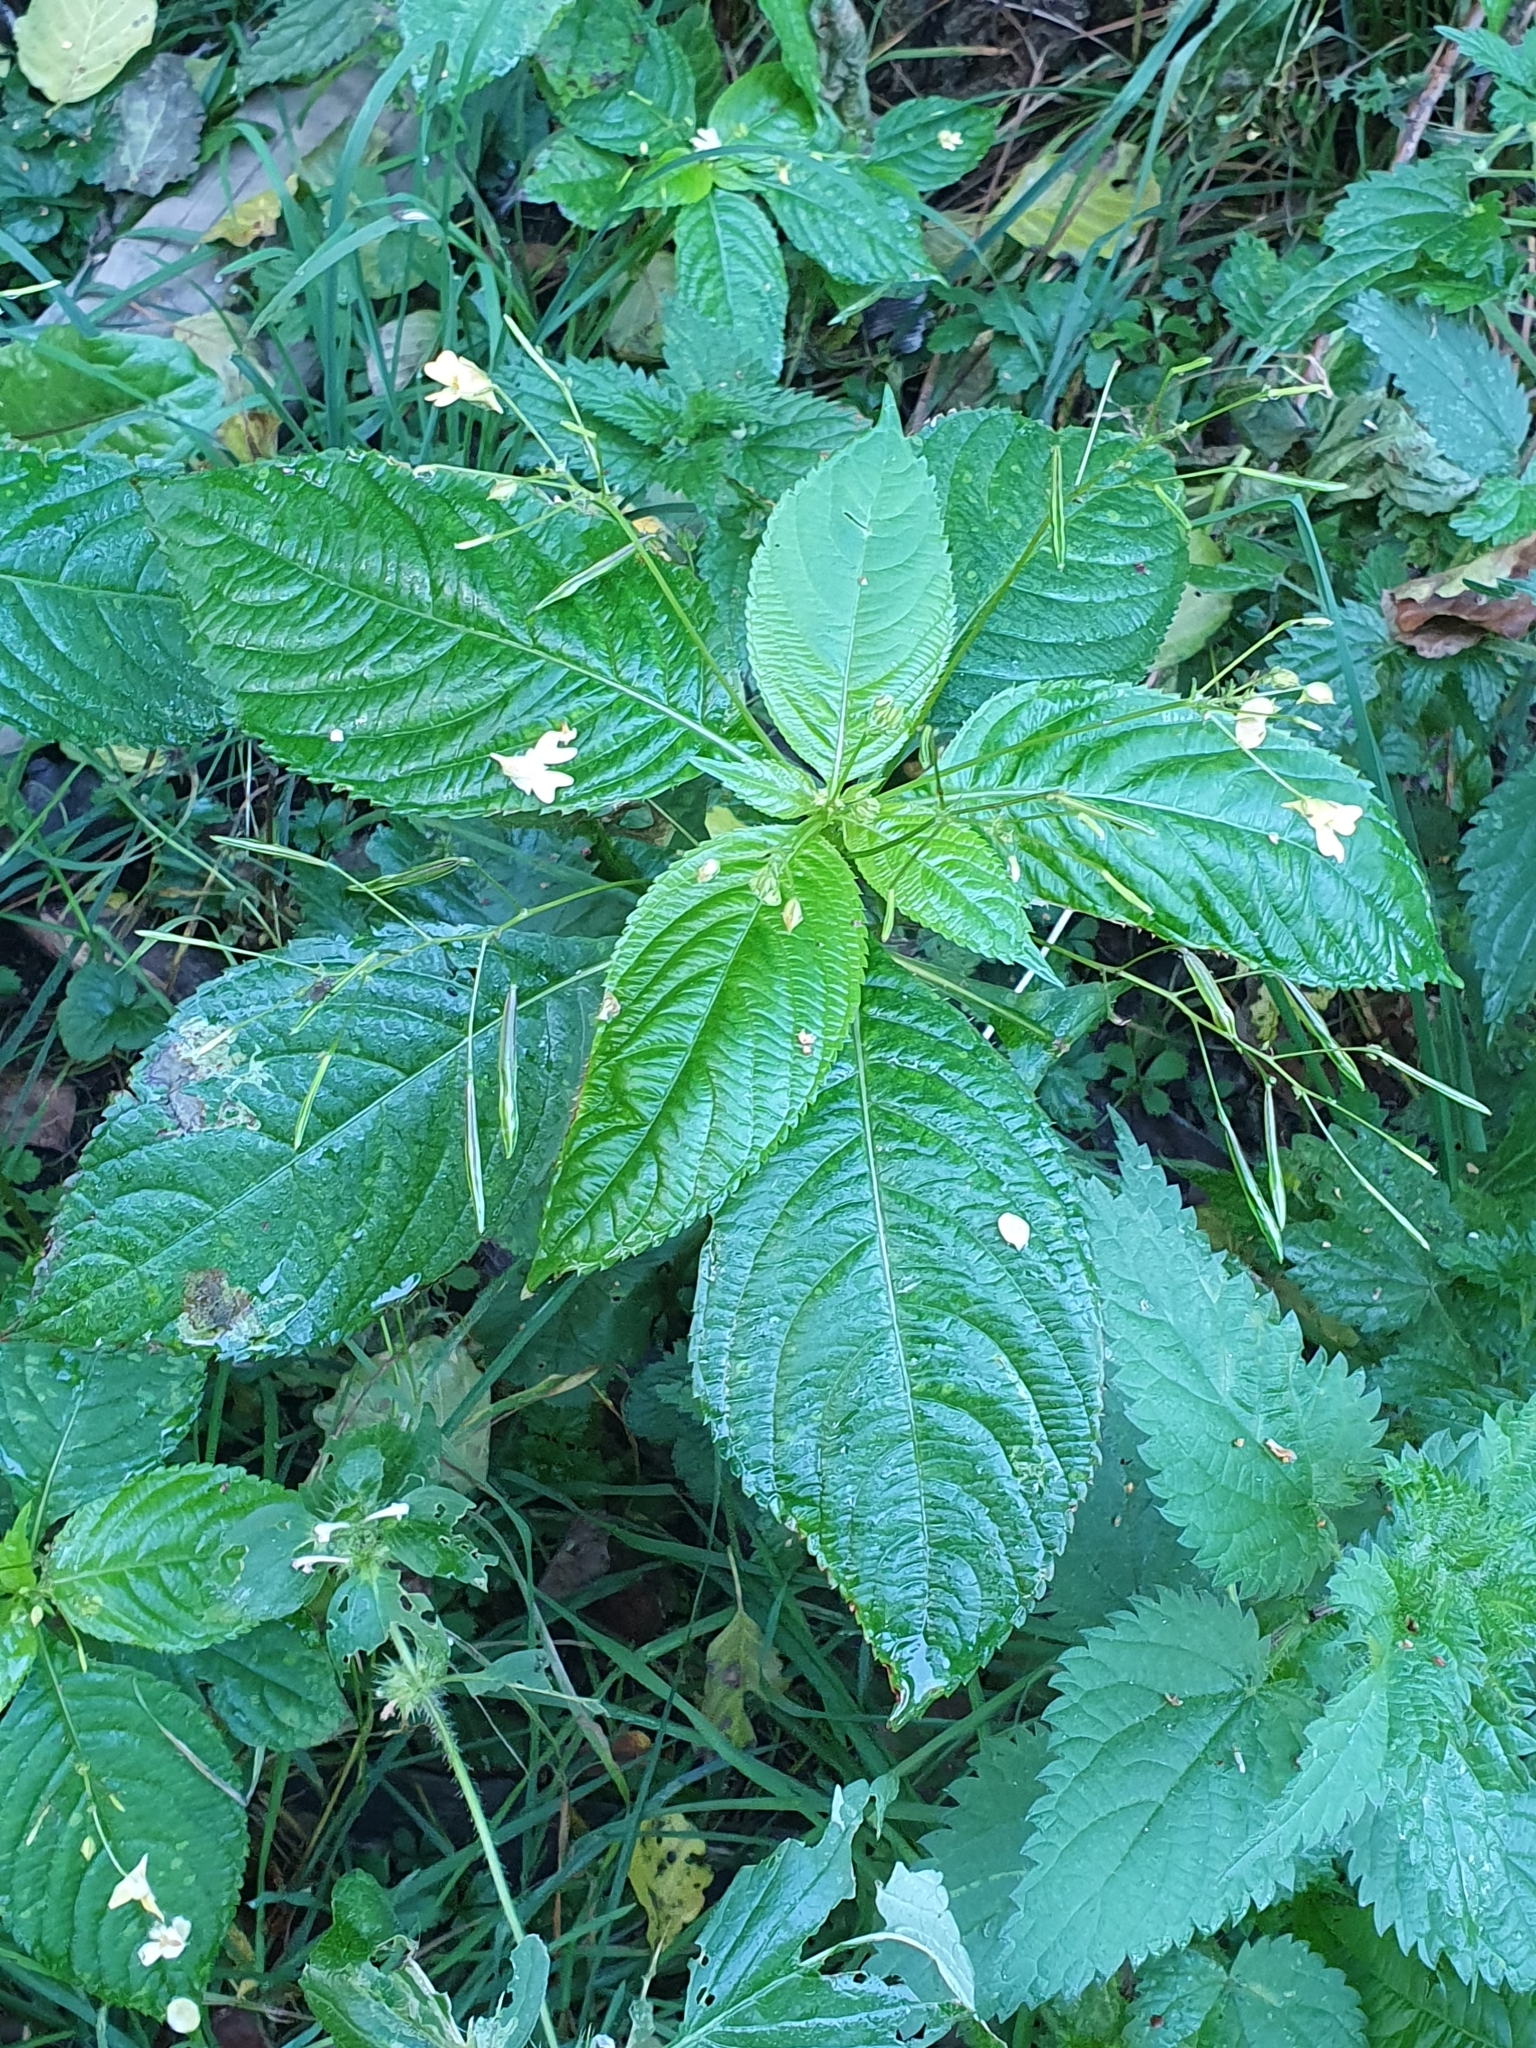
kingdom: Plantae
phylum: Tracheophyta
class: Magnoliopsida
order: Ericales
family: Balsaminaceae
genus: Impatiens
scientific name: Impatiens parviflora
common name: Small balsam
